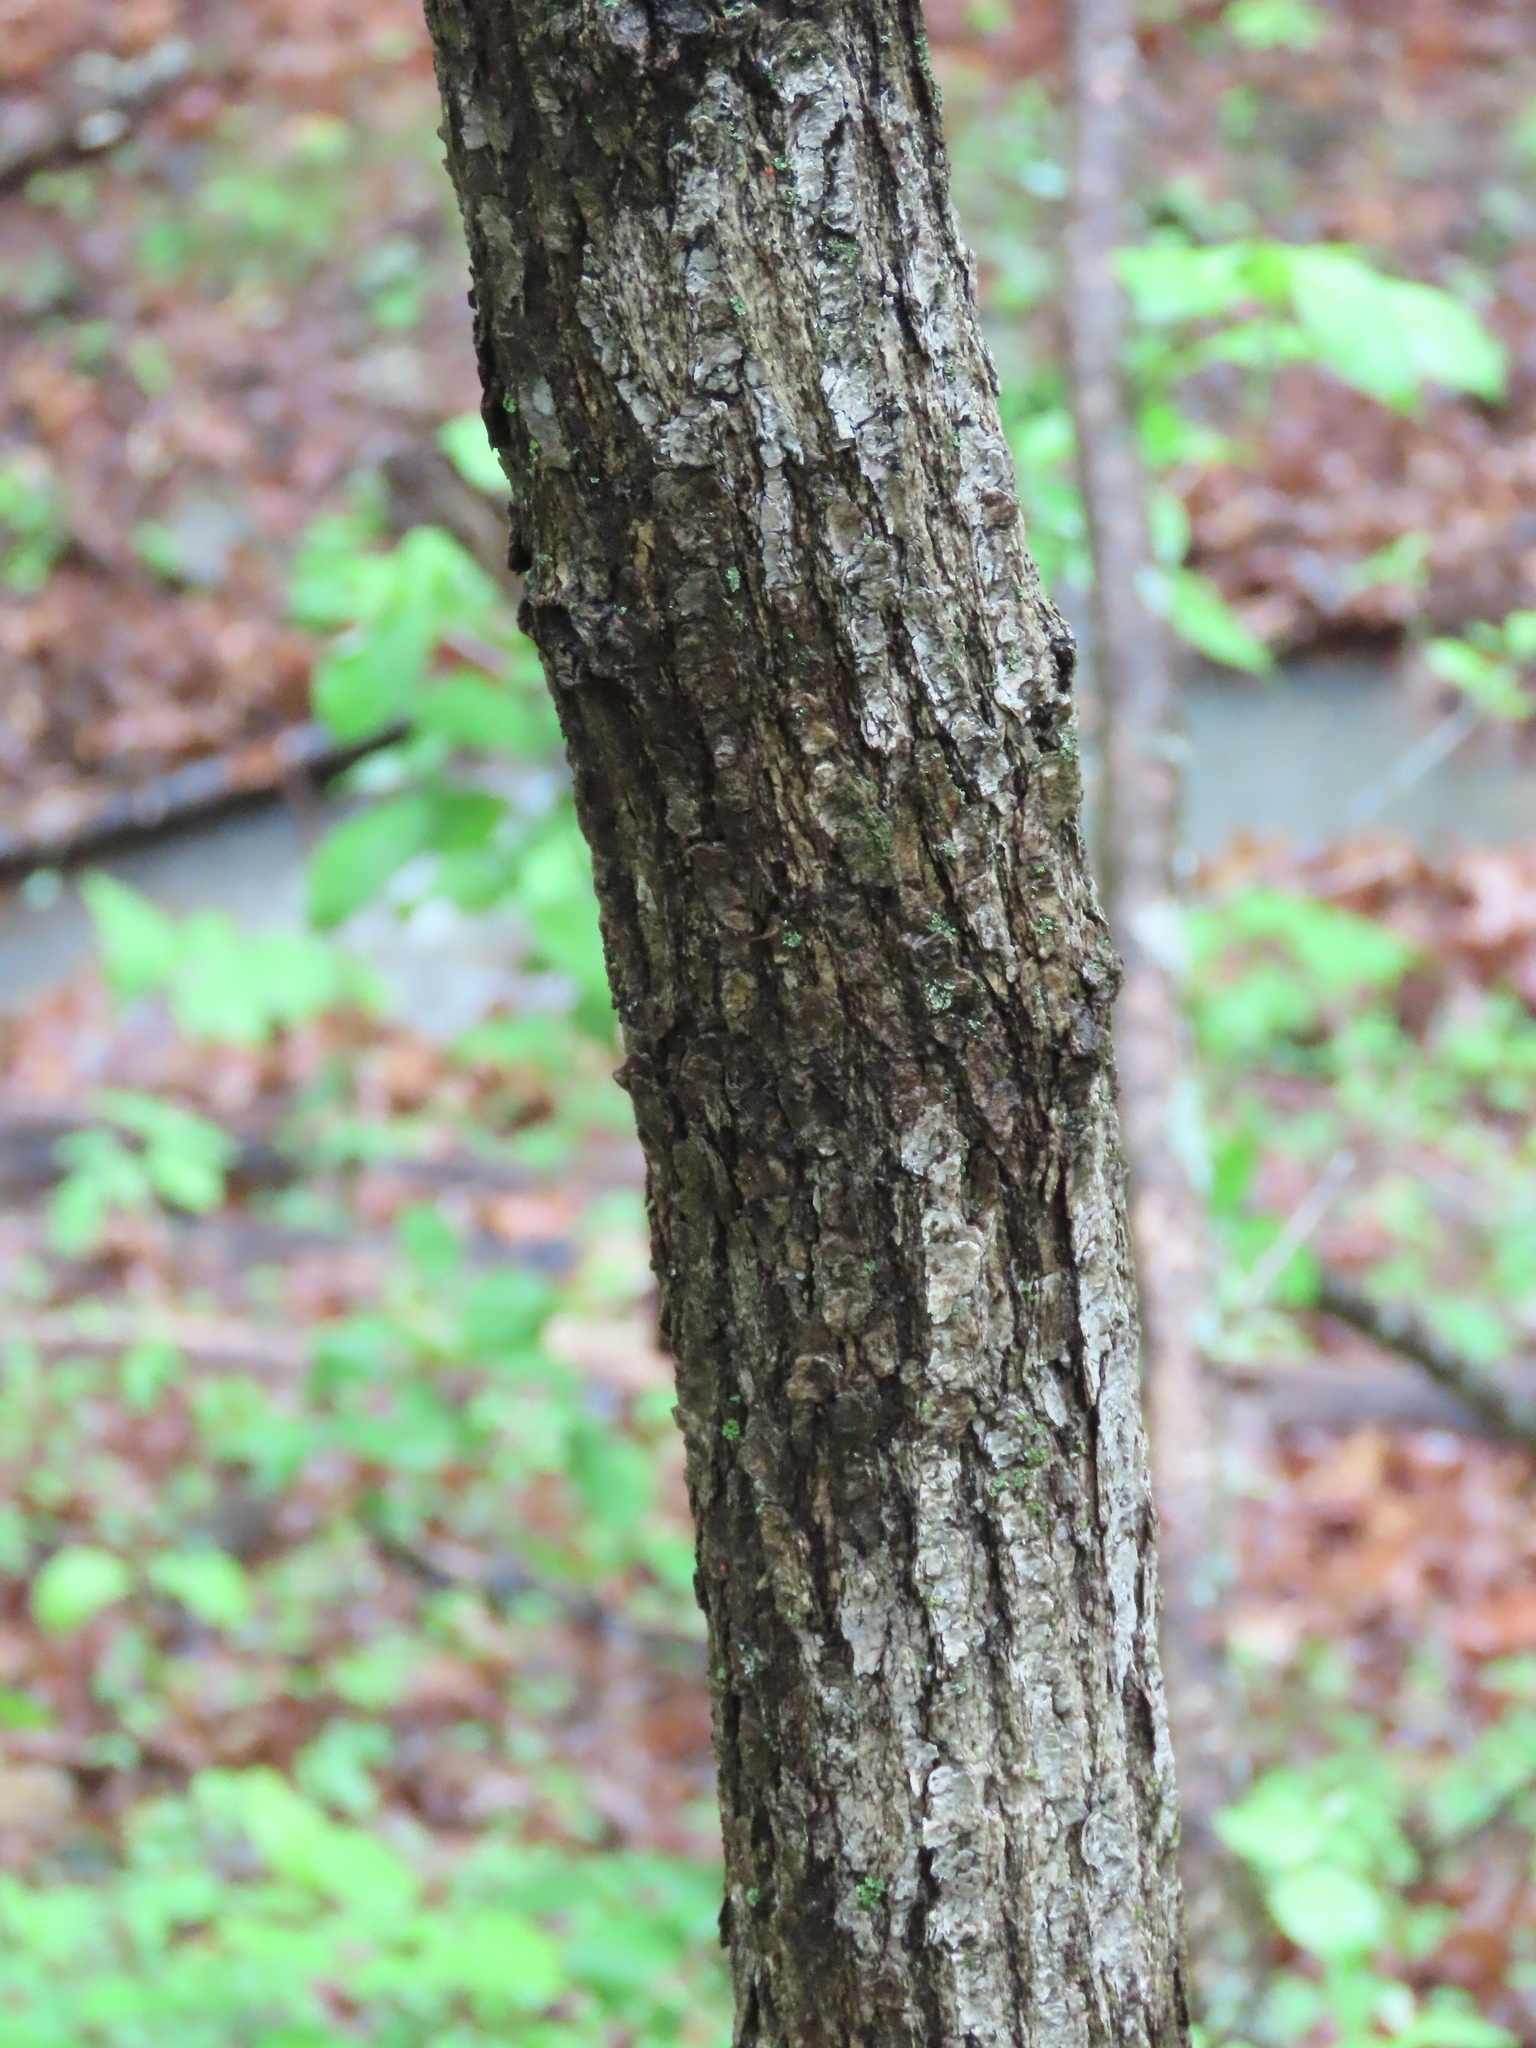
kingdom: Animalia
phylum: Arthropoda
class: Arachnida
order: Trombidiformes
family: Eriophyidae
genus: Aceria
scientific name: Aceria
